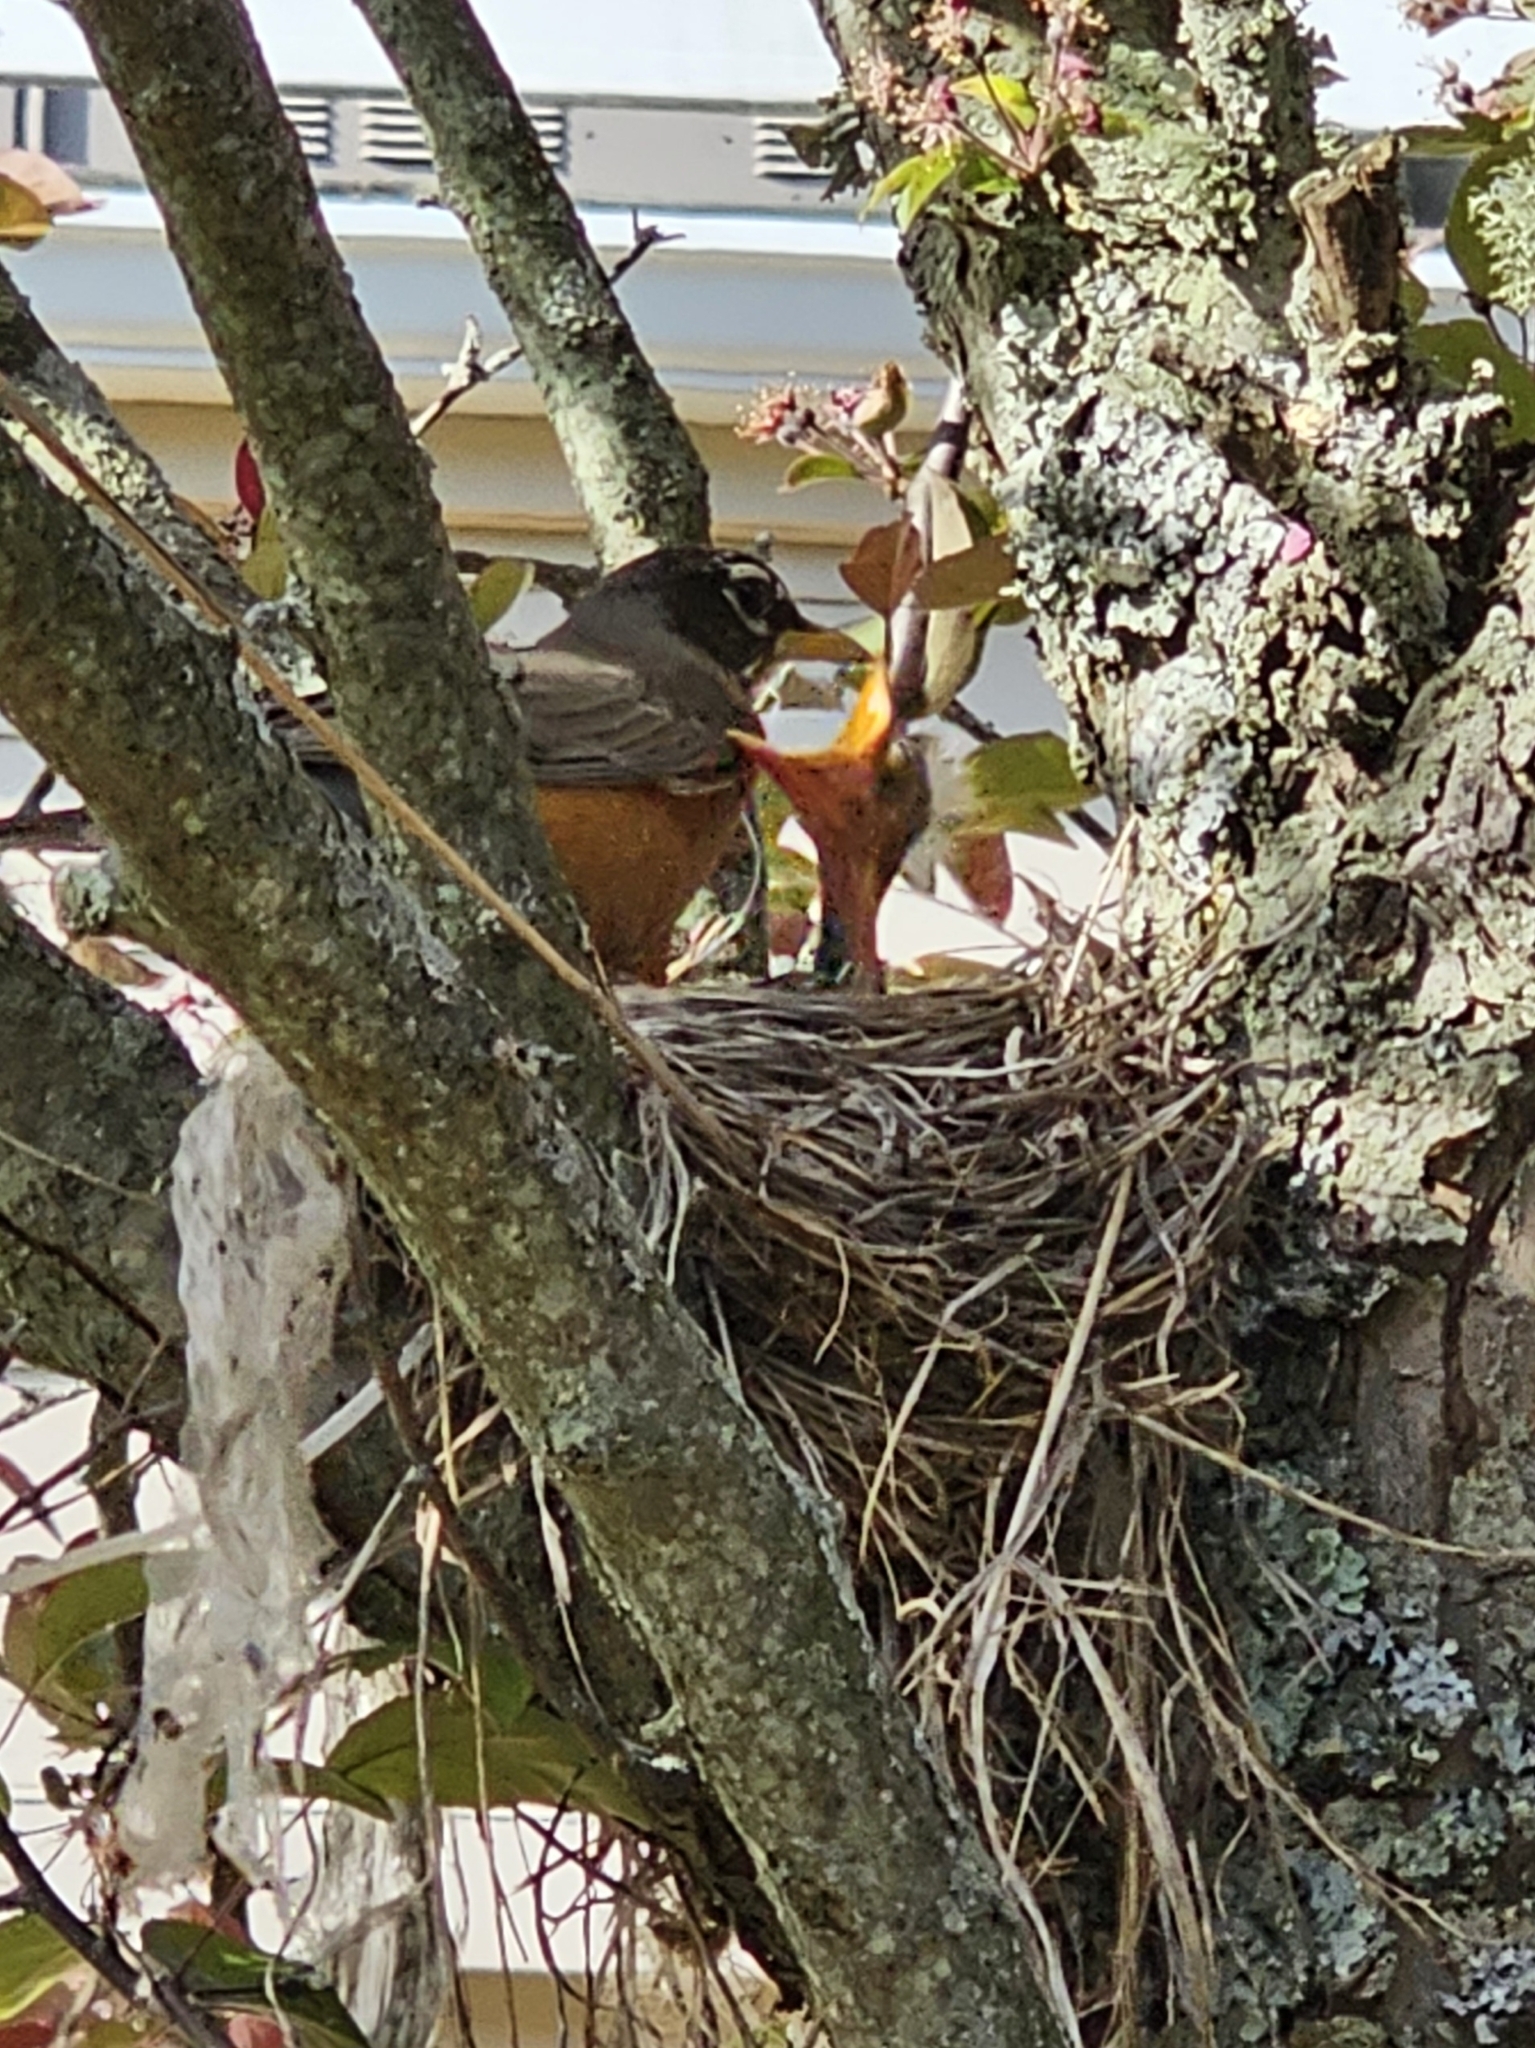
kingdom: Animalia
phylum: Chordata
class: Aves
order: Passeriformes
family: Turdidae
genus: Turdus
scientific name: Turdus migratorius
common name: American robin
